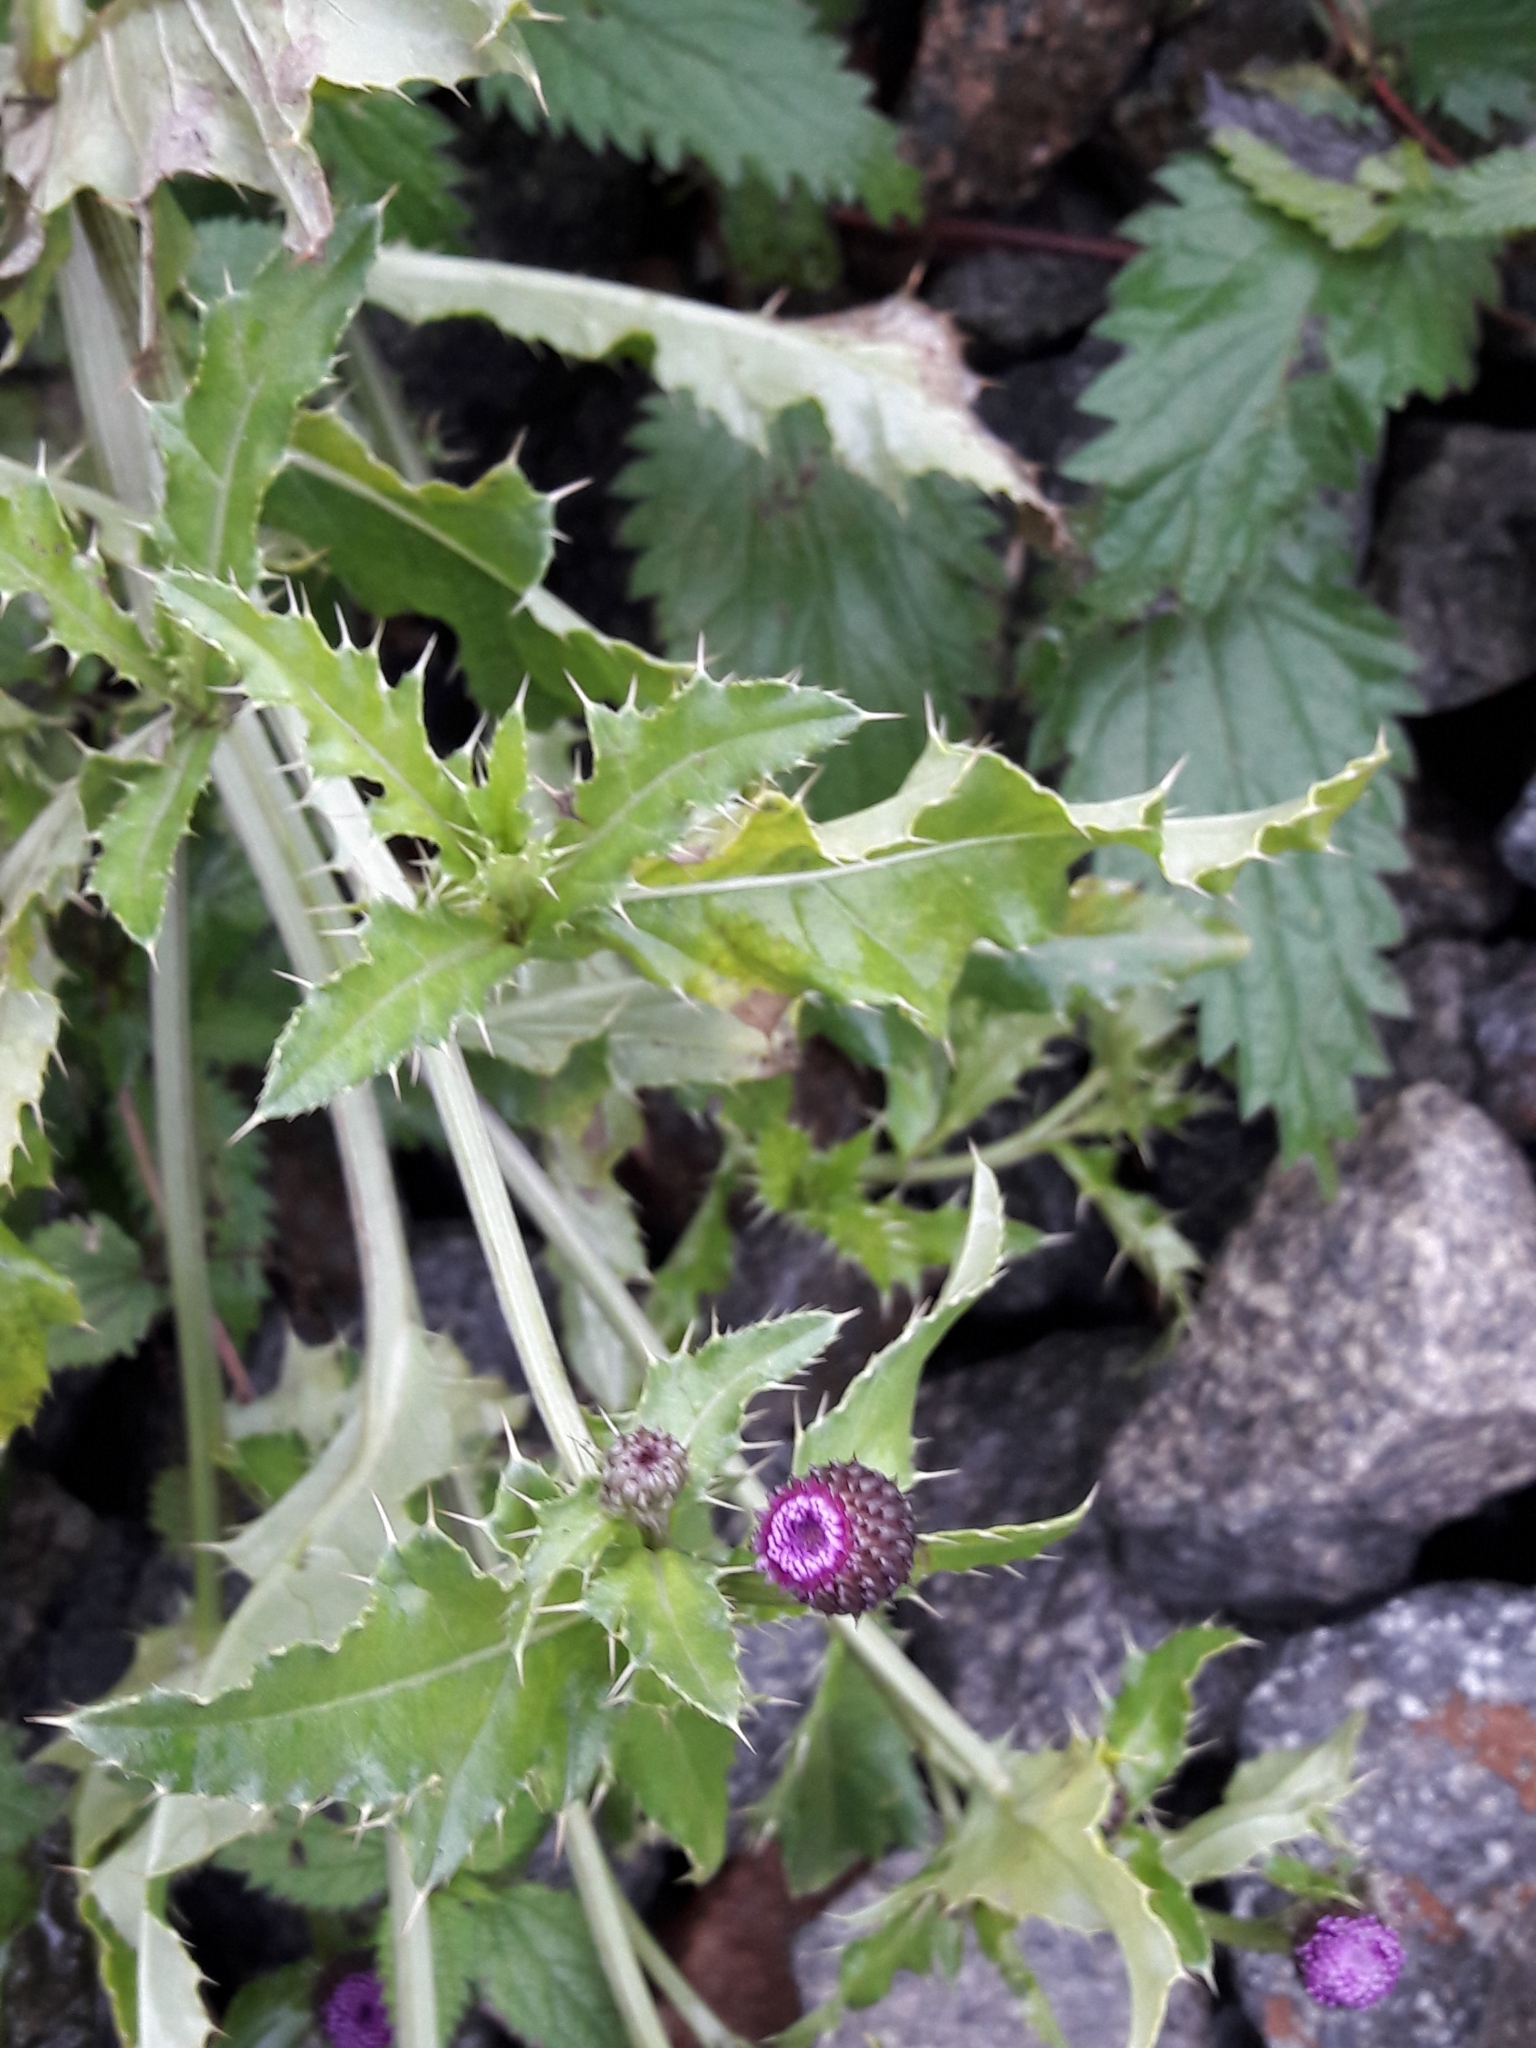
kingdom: Plantae
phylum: Tracheophyta
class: Magnoliopsida
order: Asterales
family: Asteraceae
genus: Cirsium
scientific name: Cirsium arvense
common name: Creeping thistle
